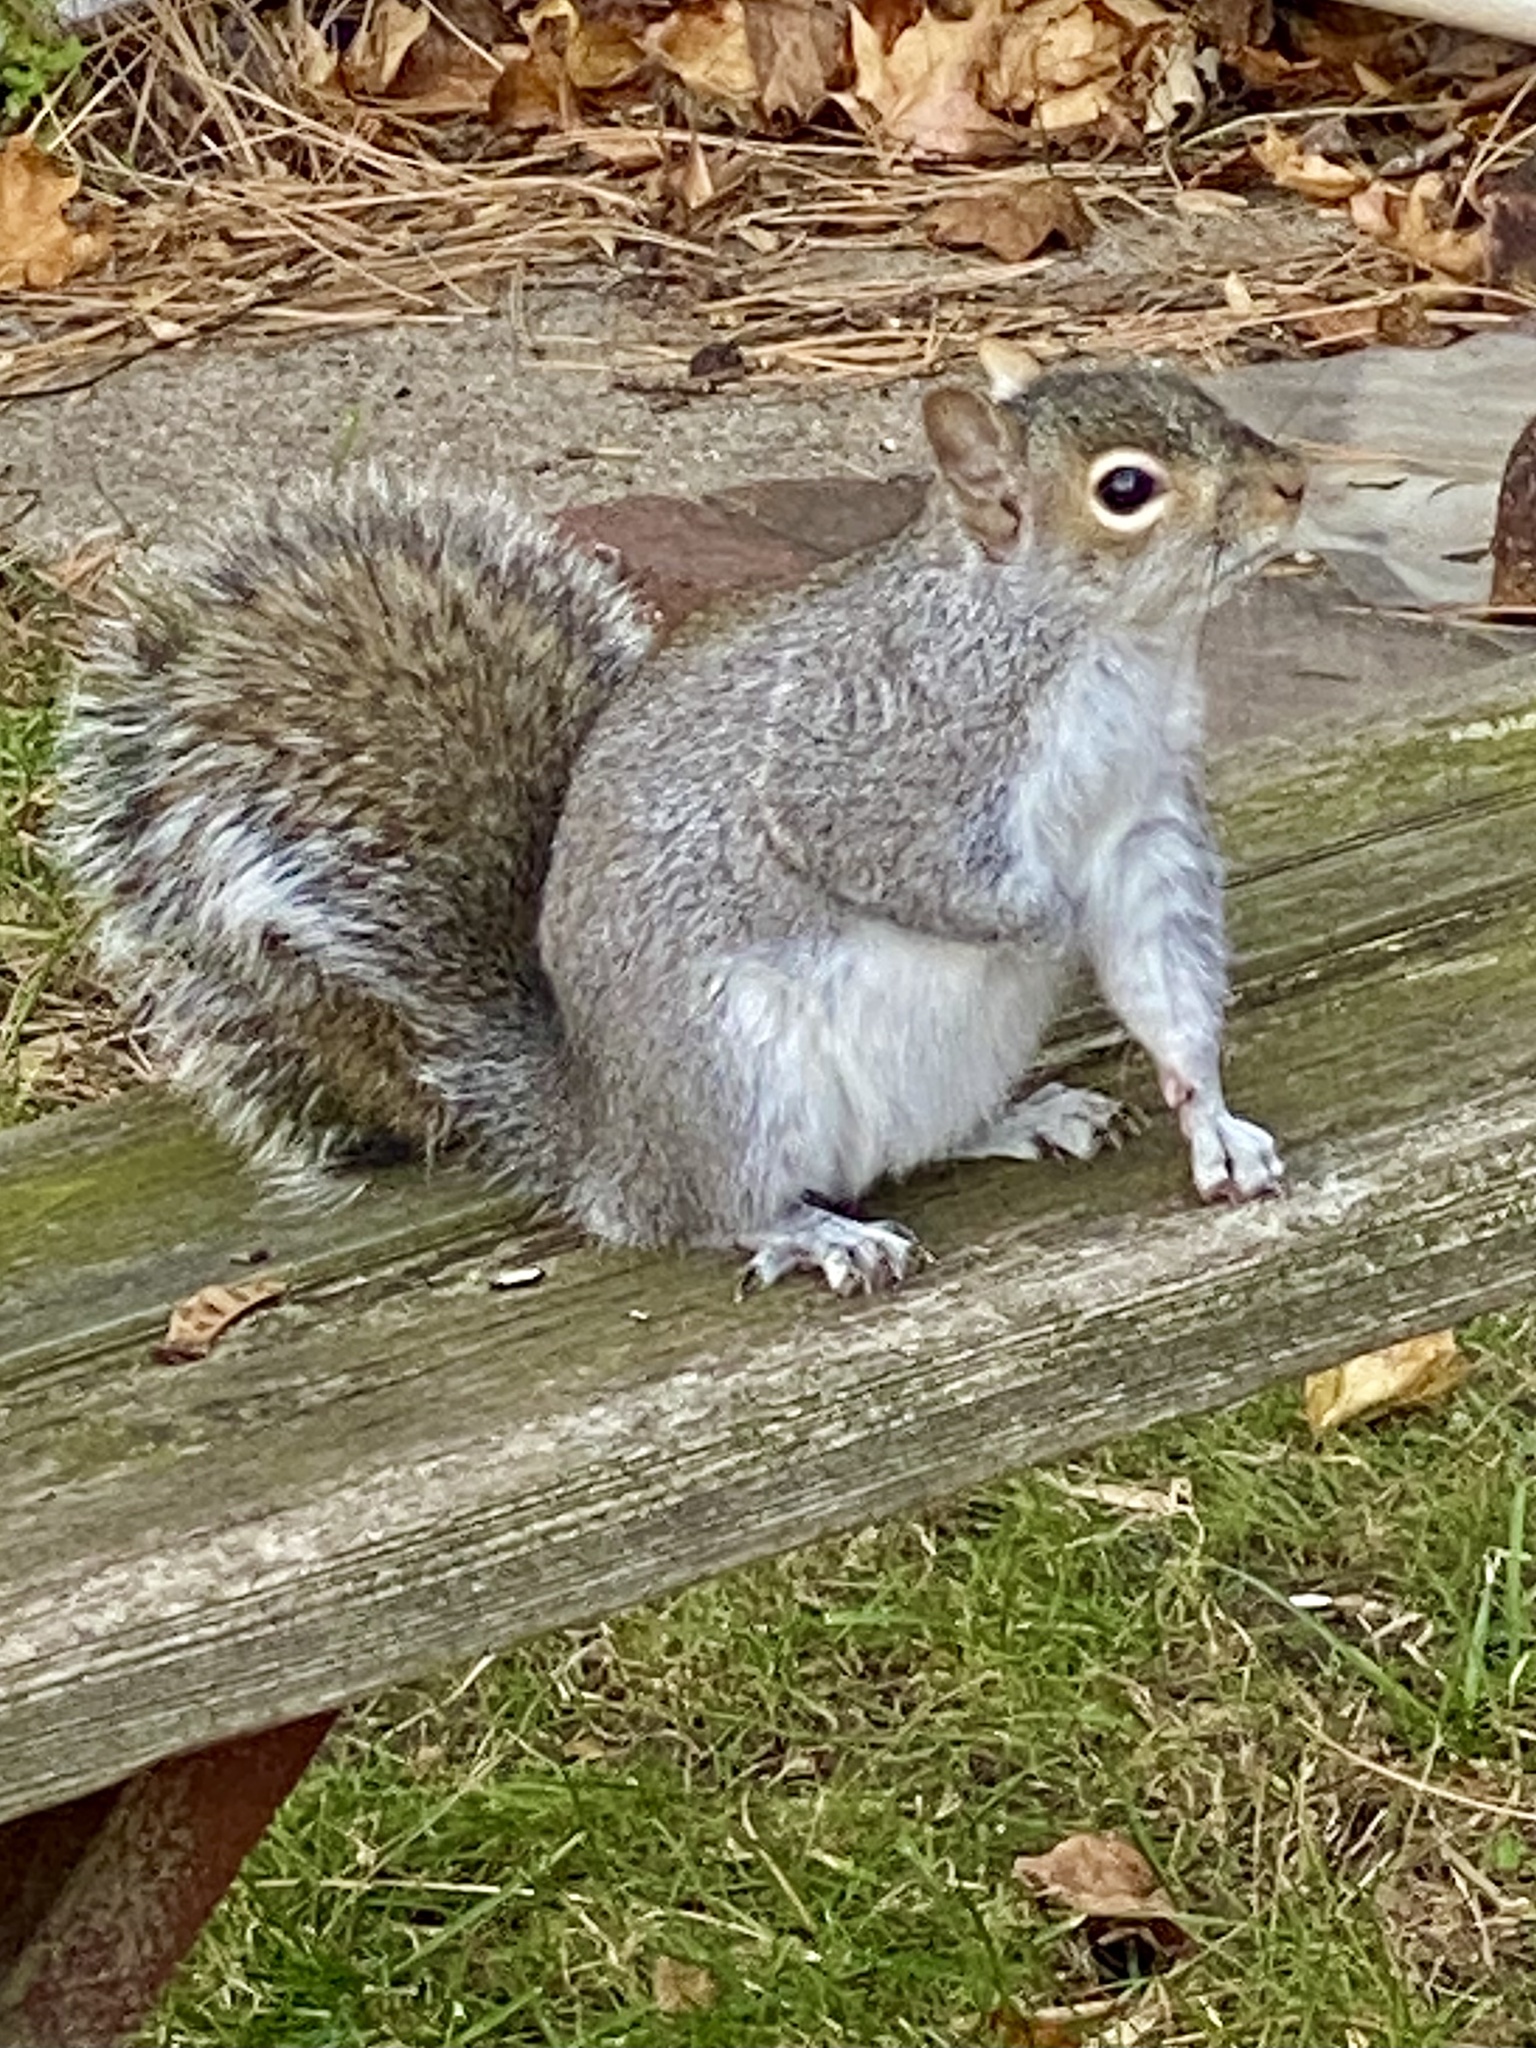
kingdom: Animalia
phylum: Chordata
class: Mammalia
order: Rodentia
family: Sciuridae
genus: Sciurus
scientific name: Sciurus carolinensis
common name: Eastern gray squirrel
